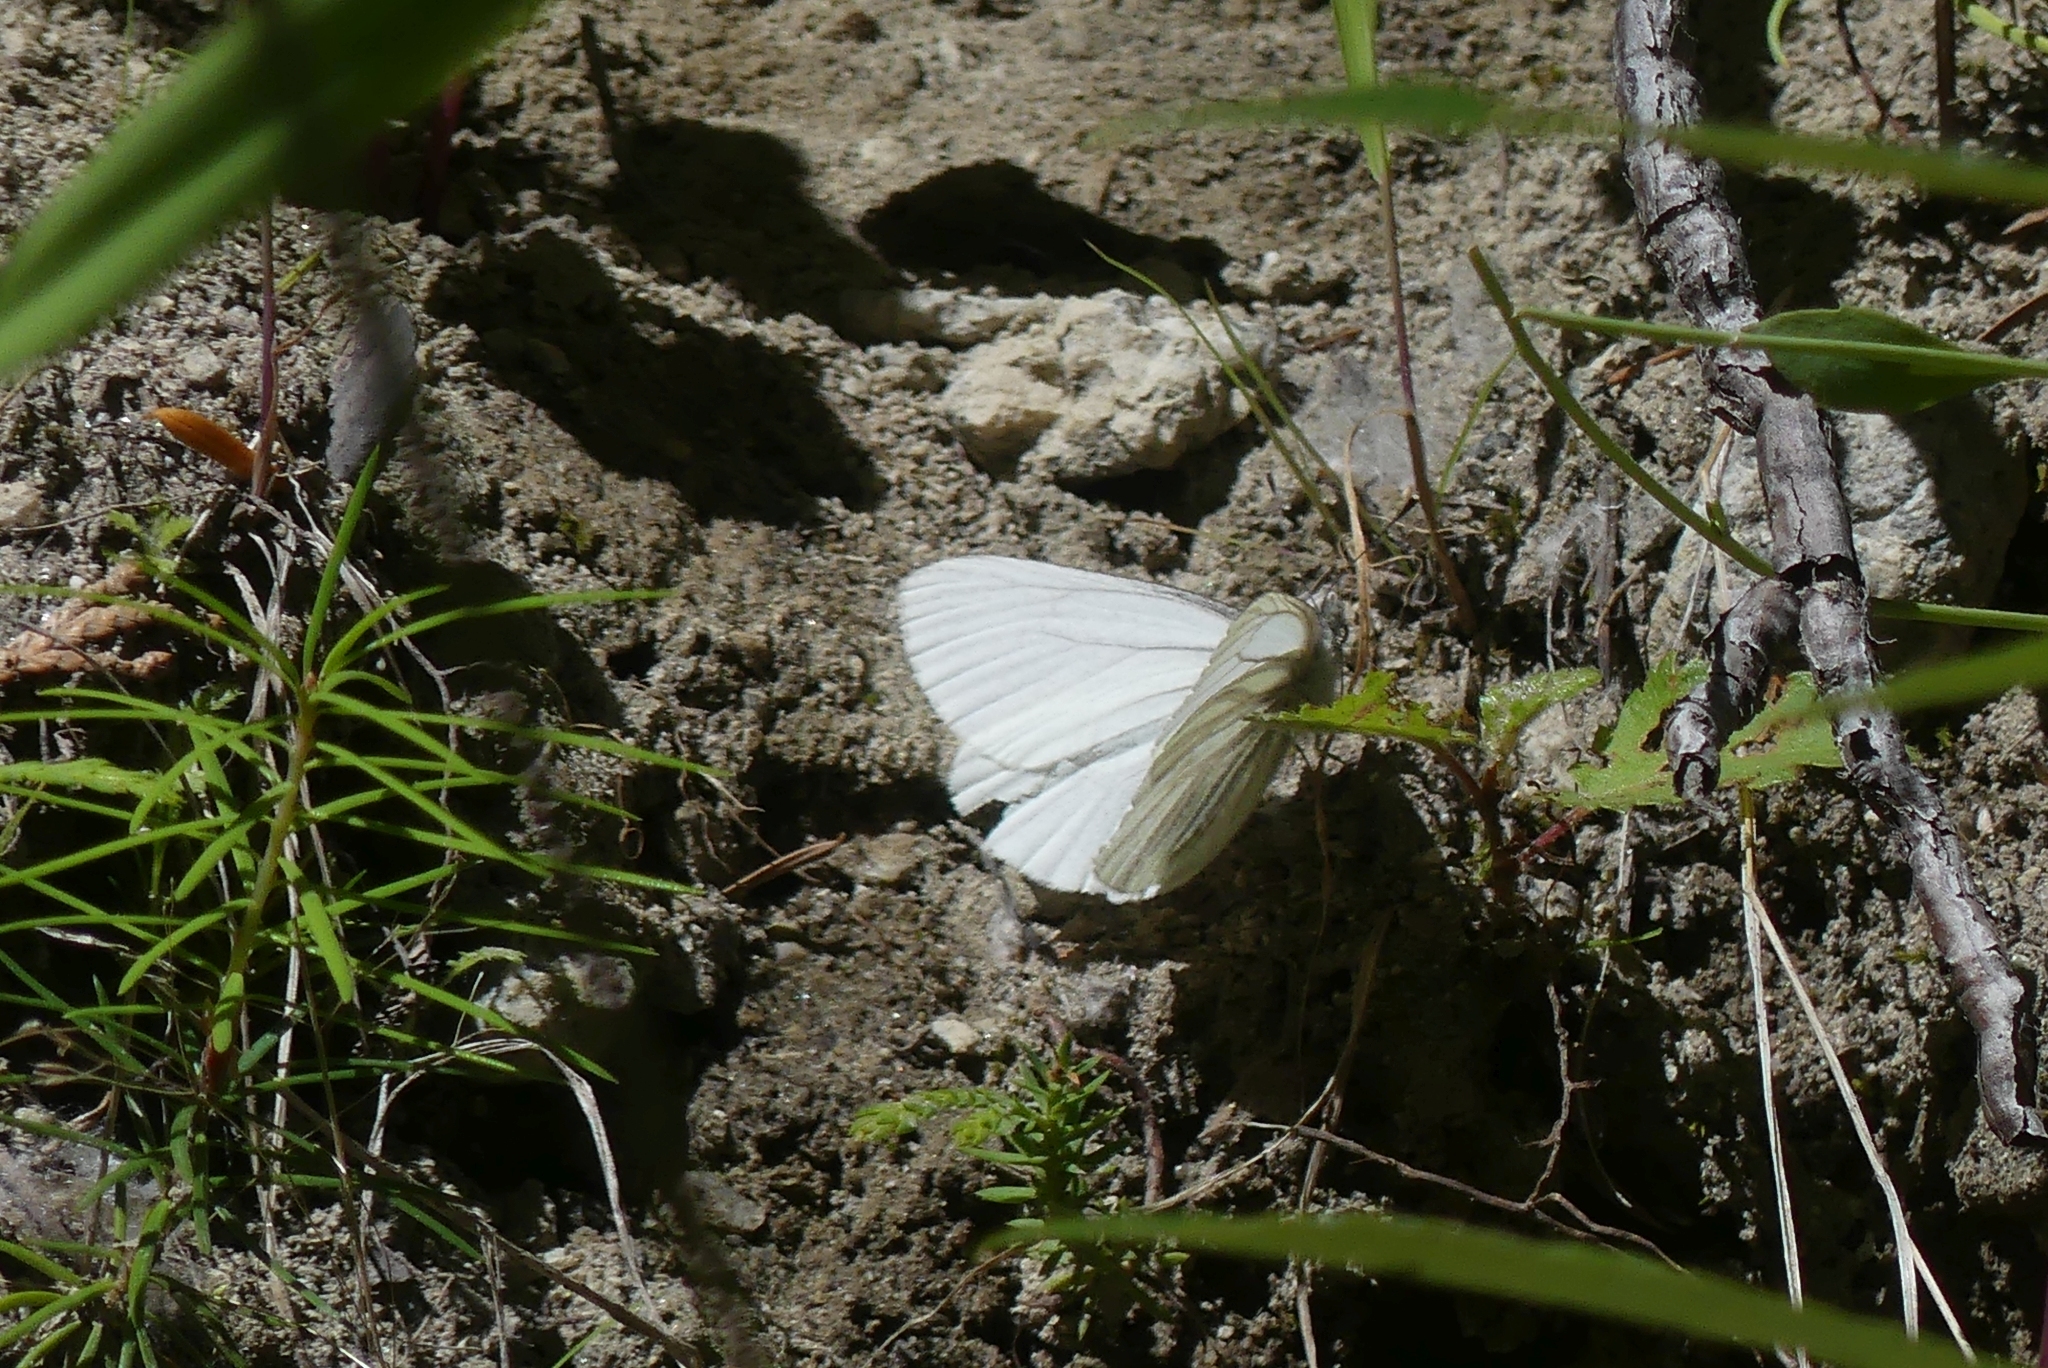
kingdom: Animalia
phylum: Arthropoda
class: Insecta
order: Lepidoptera
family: Pieridae
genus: Pieris
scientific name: Pieris marginalis
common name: Margined white
